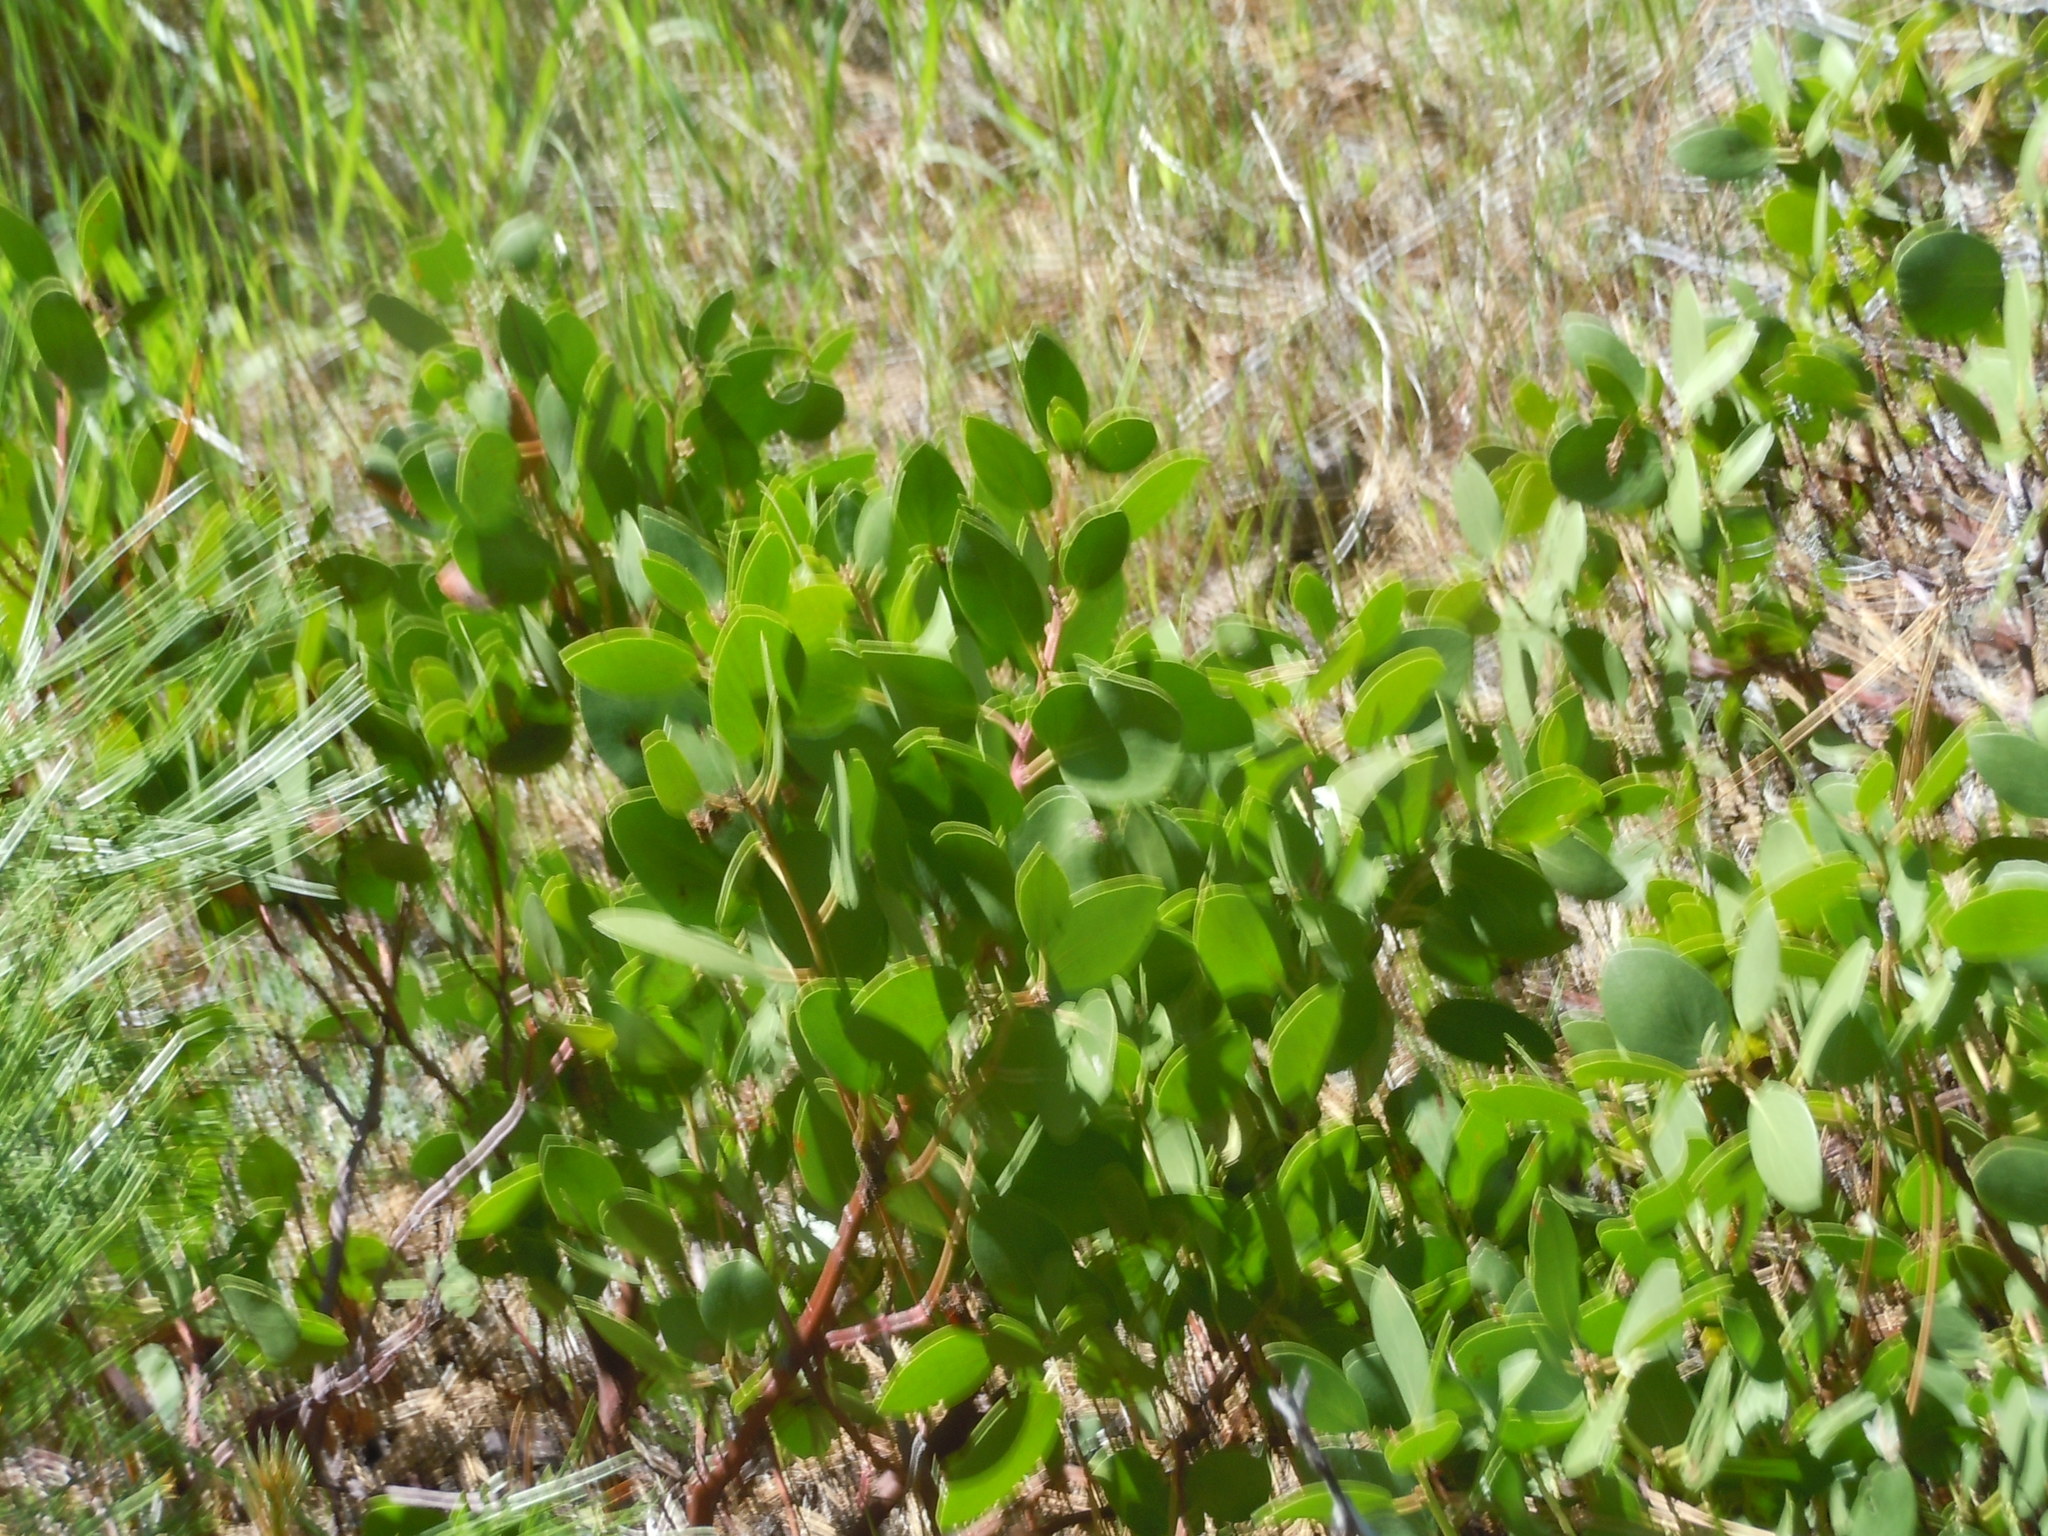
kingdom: Plantae
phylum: Tracheophyta
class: Magnoliopsida
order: Ericales
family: Ericaceae
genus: Arctostaphylos
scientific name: Arctostaphylos patula
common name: Green-leaf manzanita
